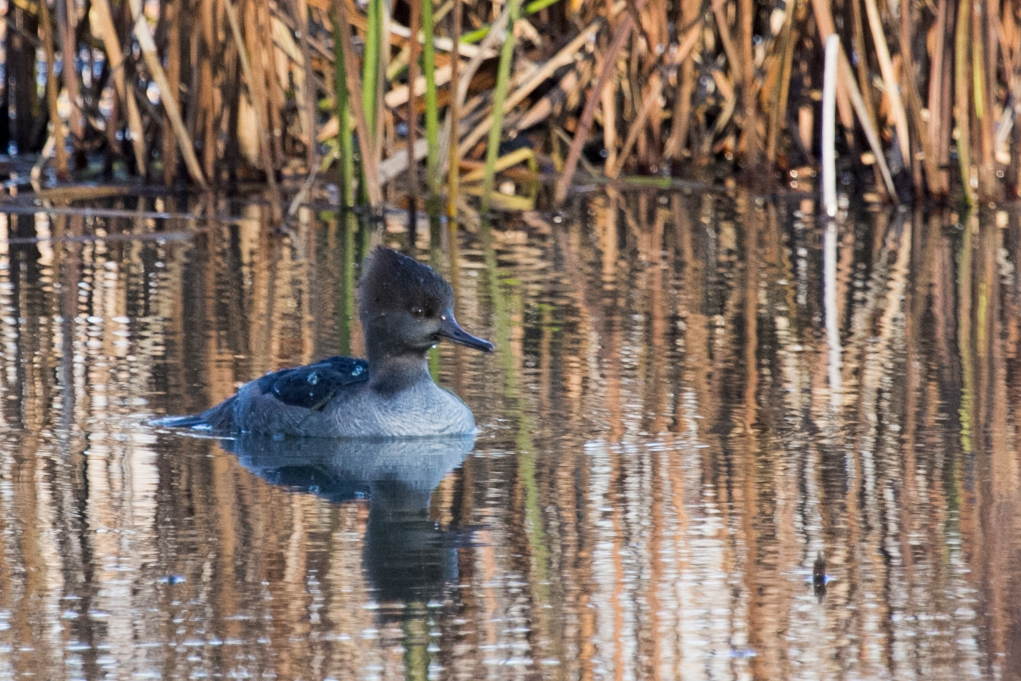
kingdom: Animalia
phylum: Chordata
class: Aves
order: Anseriformes
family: Anatidae
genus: Lophodytes
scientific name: Lophodytes cucullatus
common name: Hooded merganser
